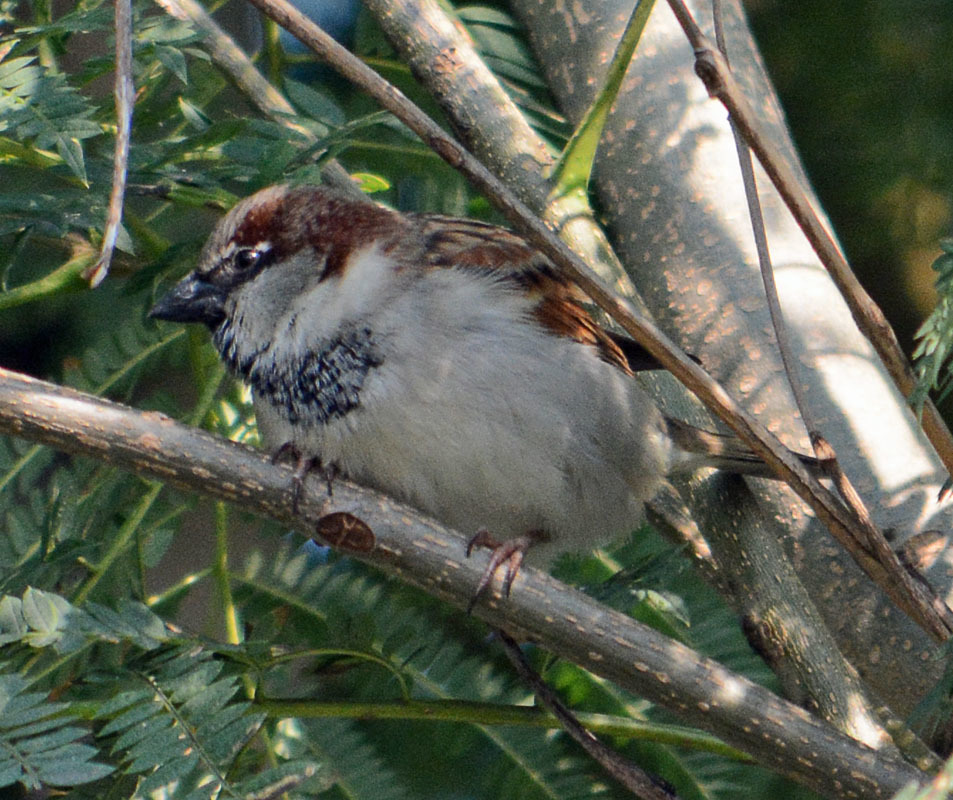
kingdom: Animalia
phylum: Chordata
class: Aves
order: Passeriformes
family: Passeridae
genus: Passer
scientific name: Passer domesticus
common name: House sparrow
